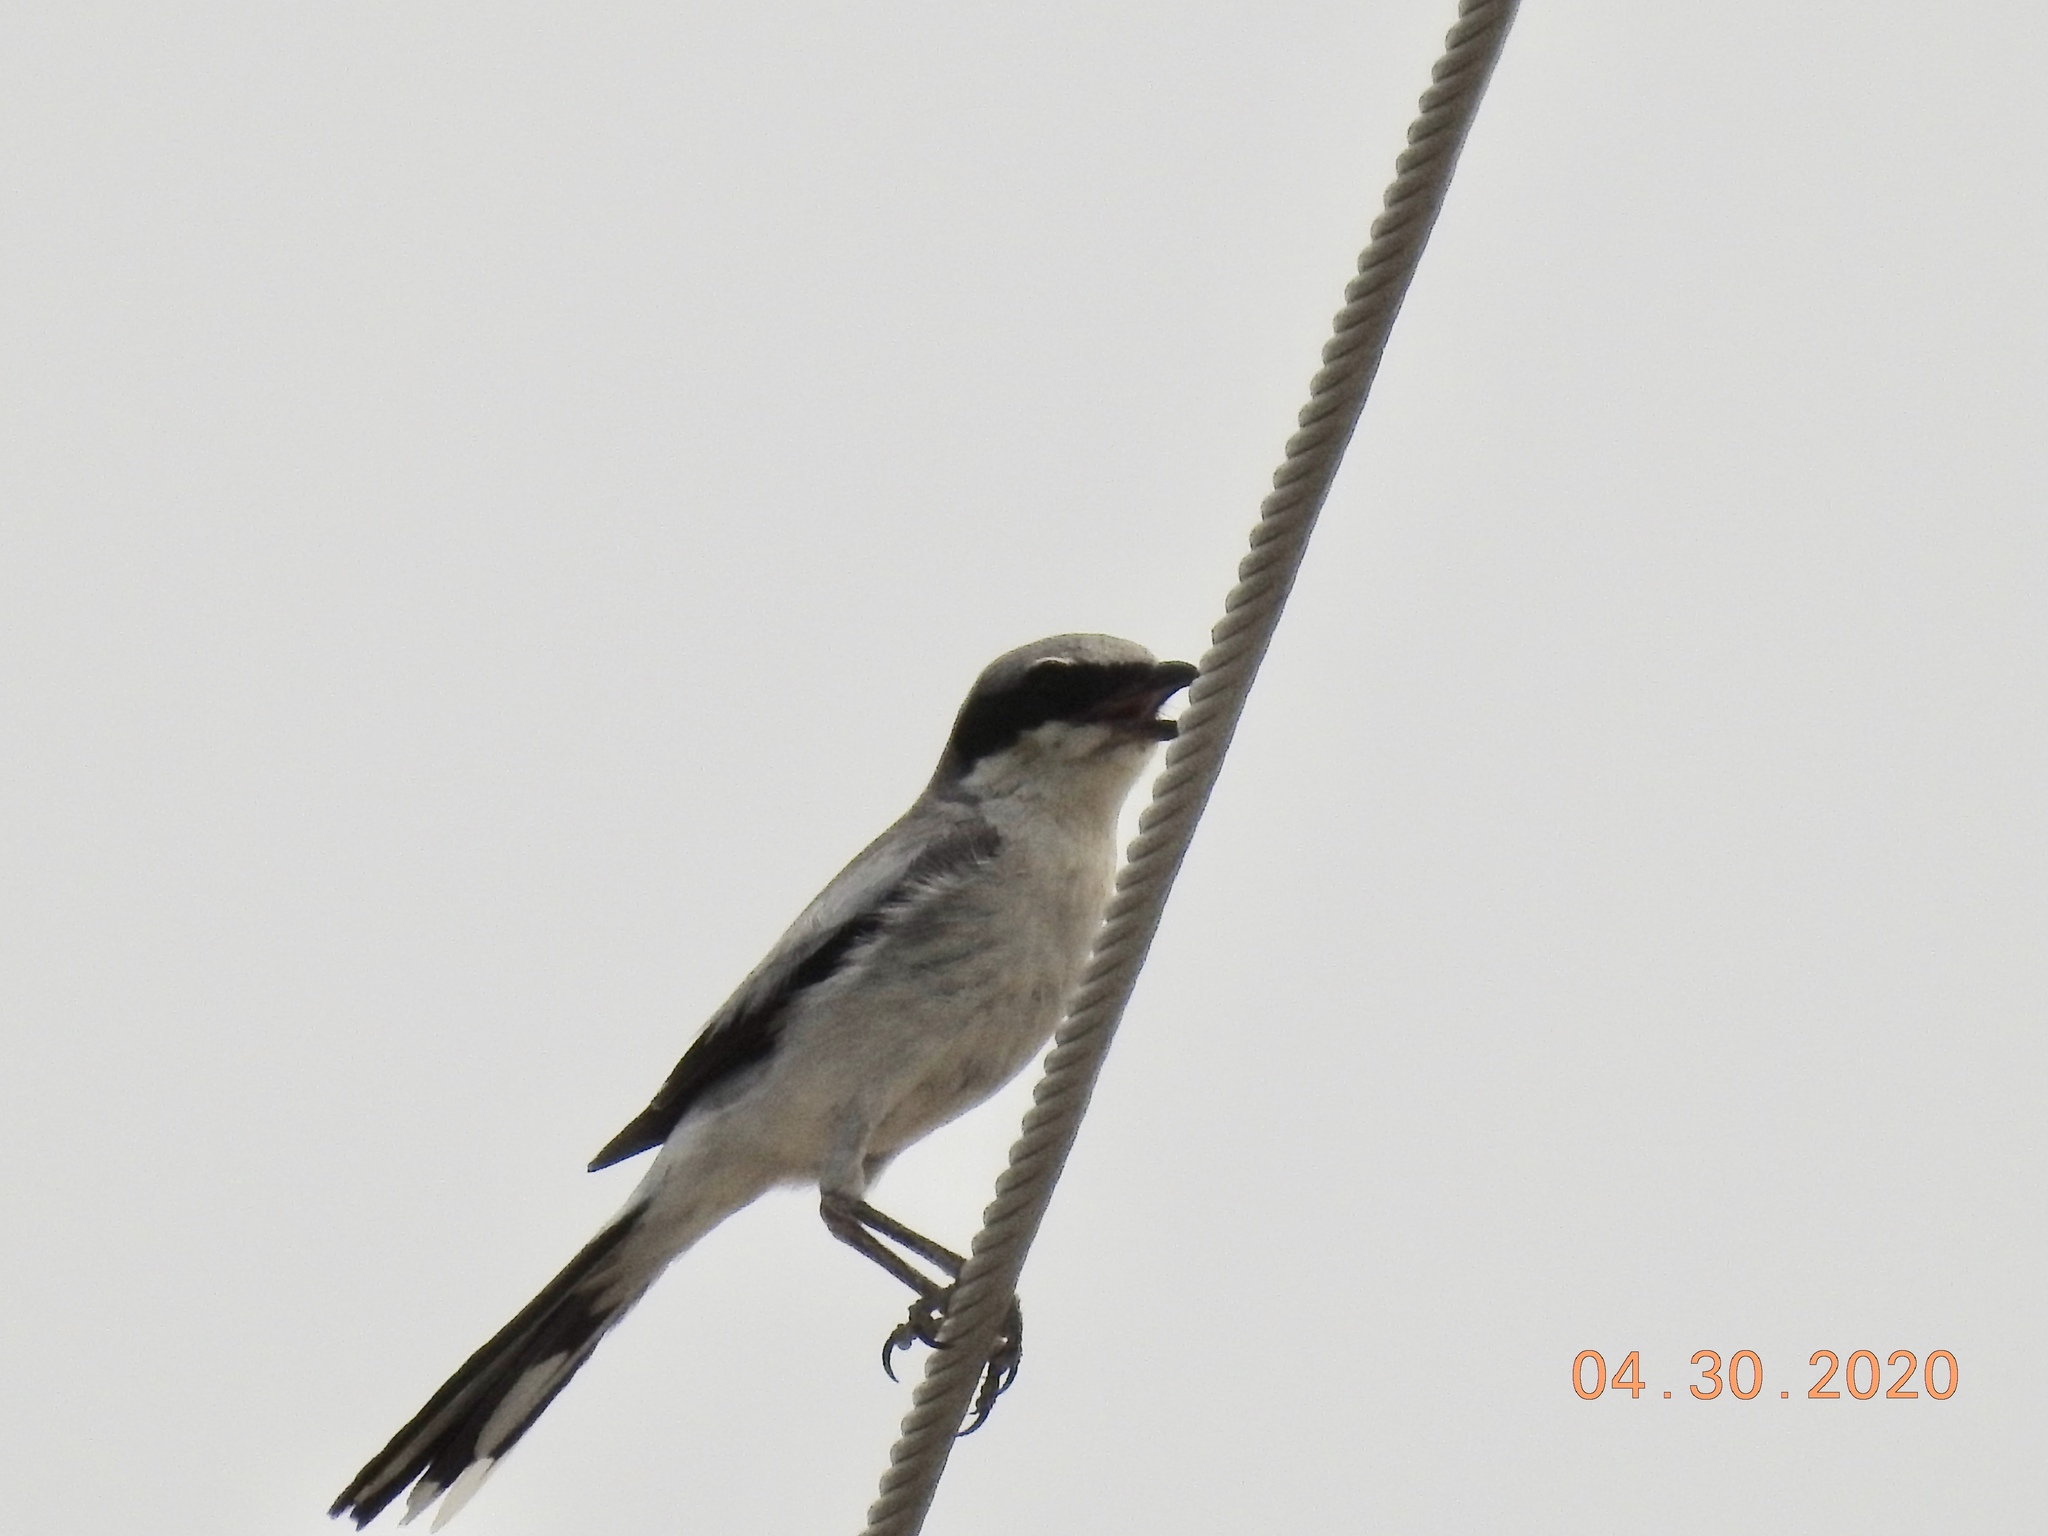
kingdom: Animalia
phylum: Chordata
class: Aves
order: Passeriformes
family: Laniidae
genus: Lanius
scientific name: Lanius ludovicianus
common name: Loggerhead shrike
